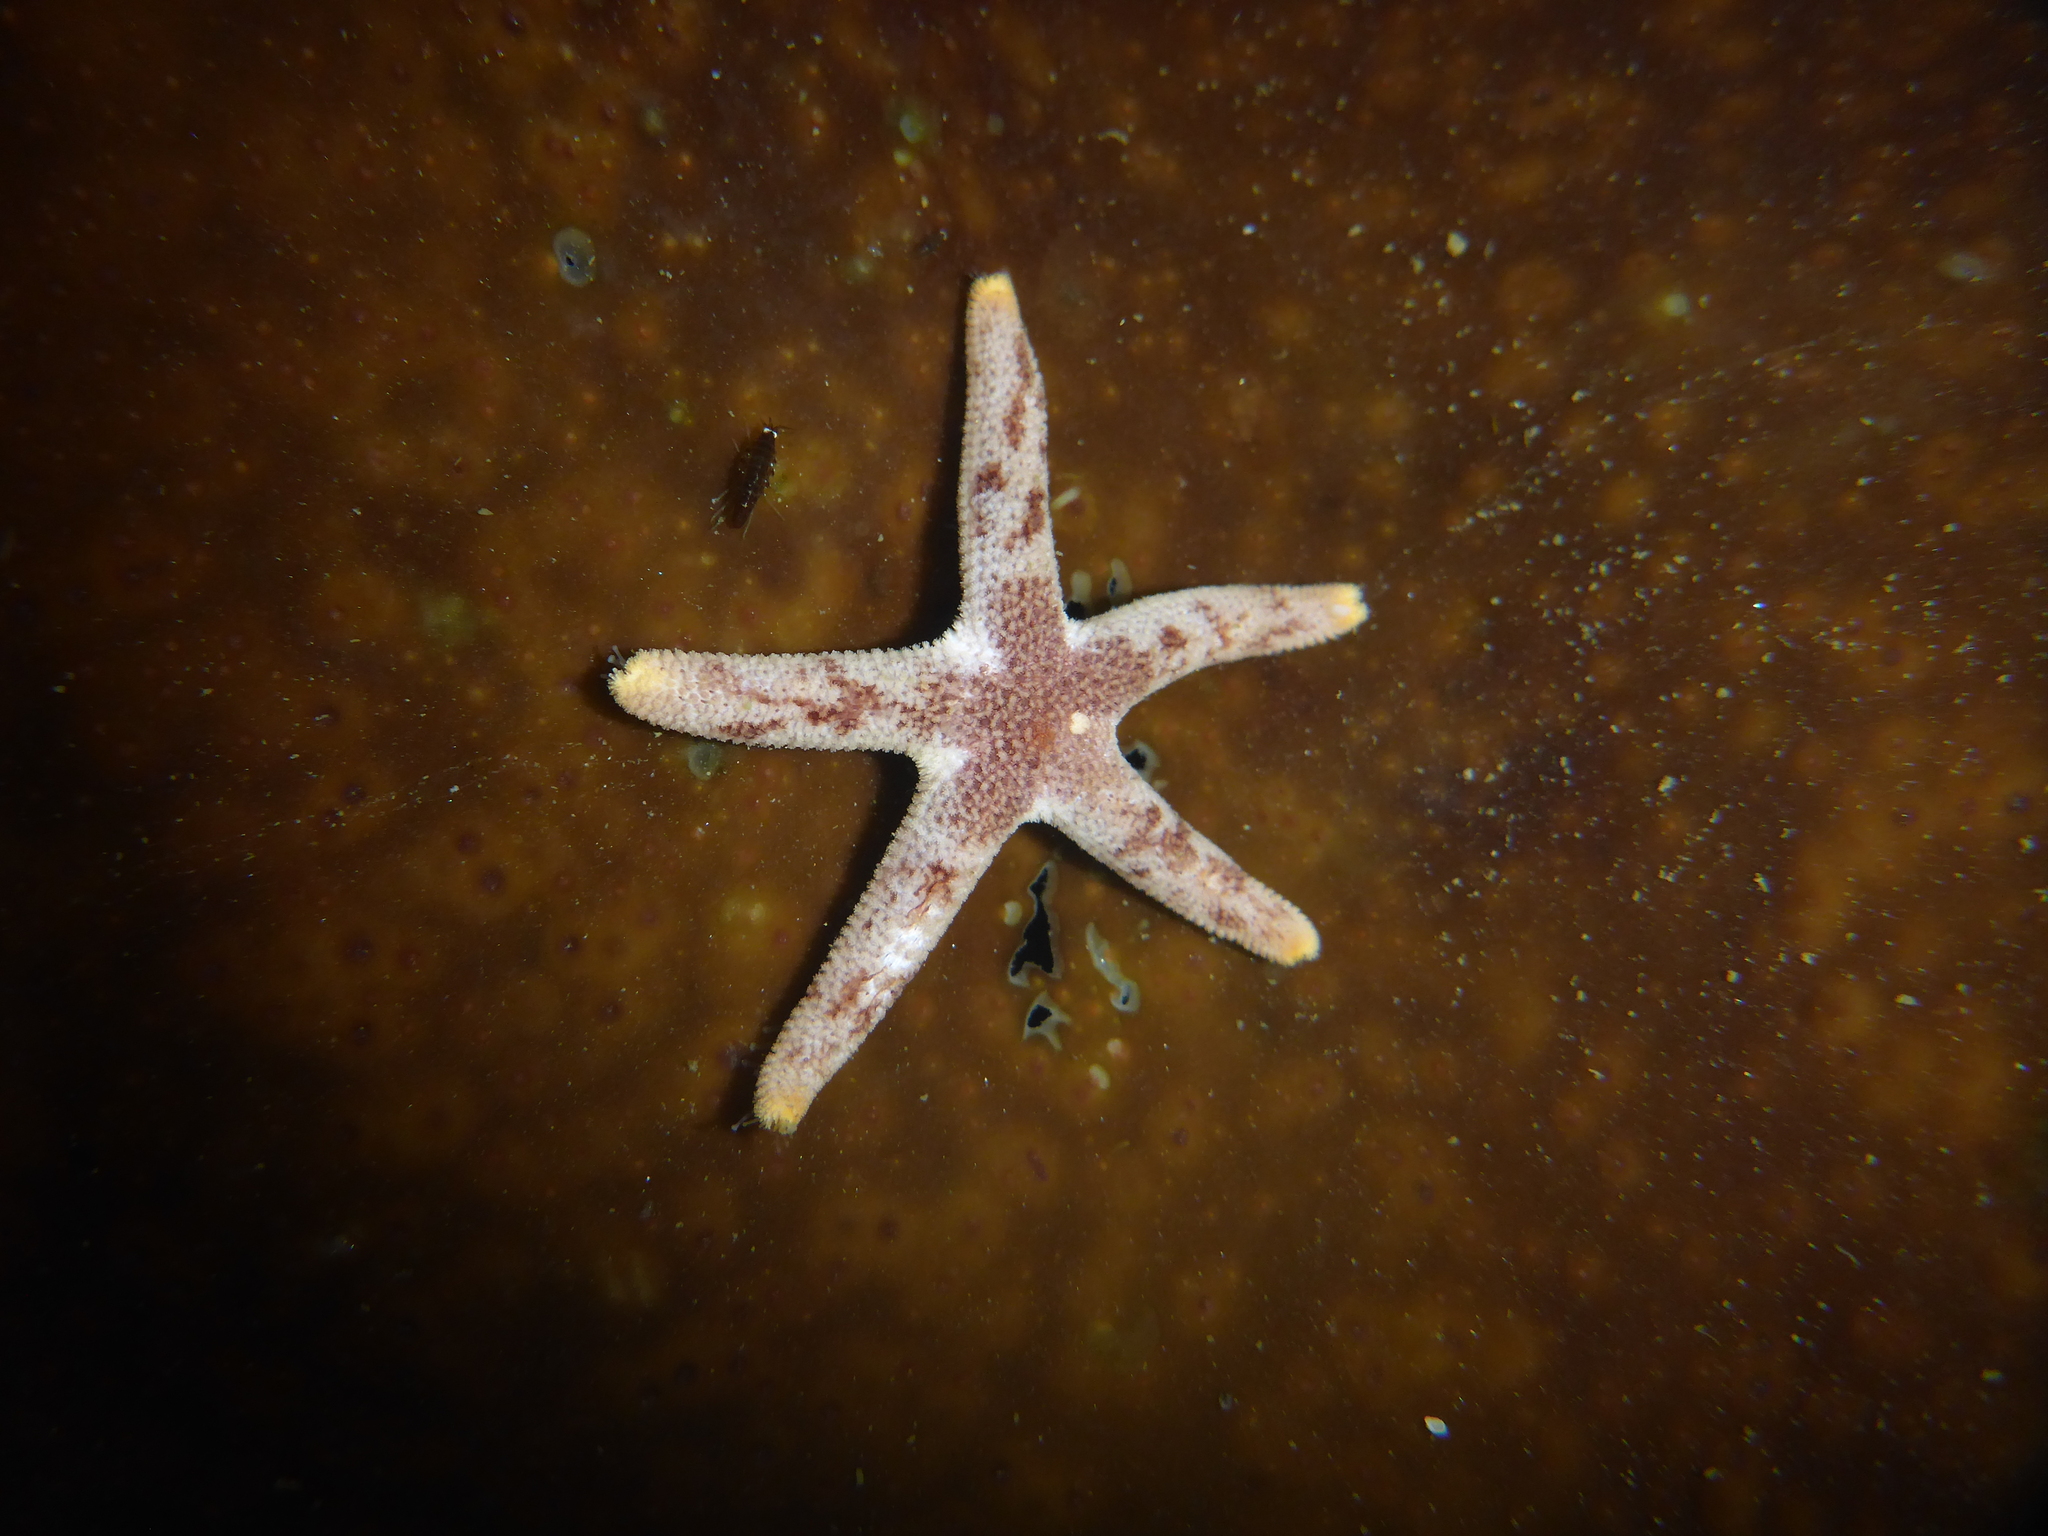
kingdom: Animalia
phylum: Echinodermata
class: Asteroidea
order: Spinulosida
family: Echinasteridae
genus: Henricia
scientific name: Henricia pumila
